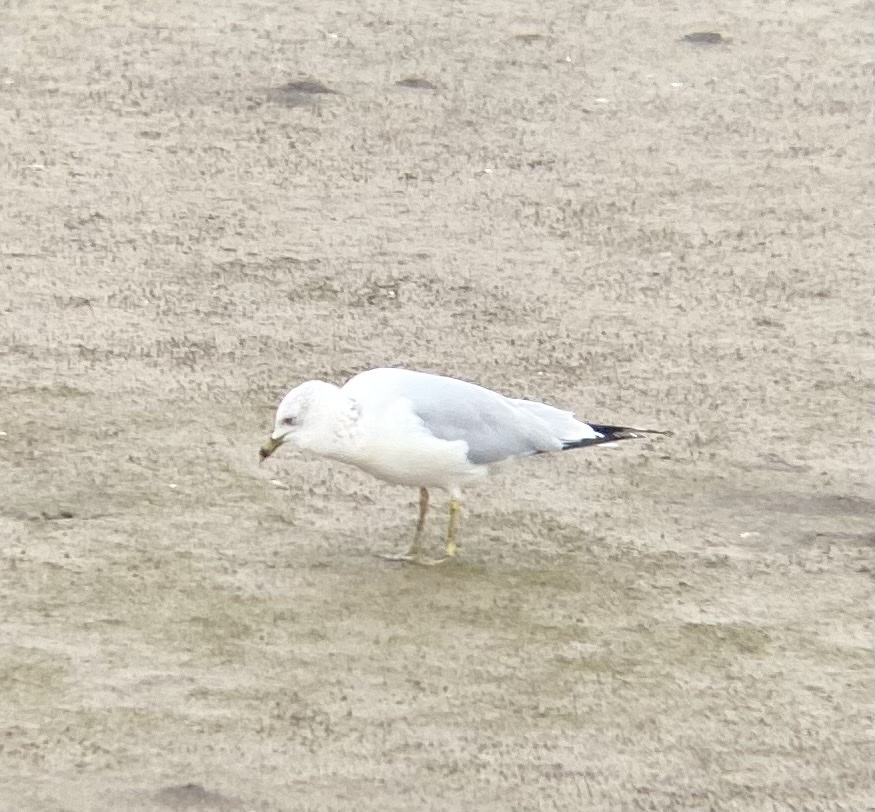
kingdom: Animalia
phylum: Chordata
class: Aves
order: Charadriiformes
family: Laridae
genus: Larus
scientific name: Larus delawarensis
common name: Ring-billed gull
